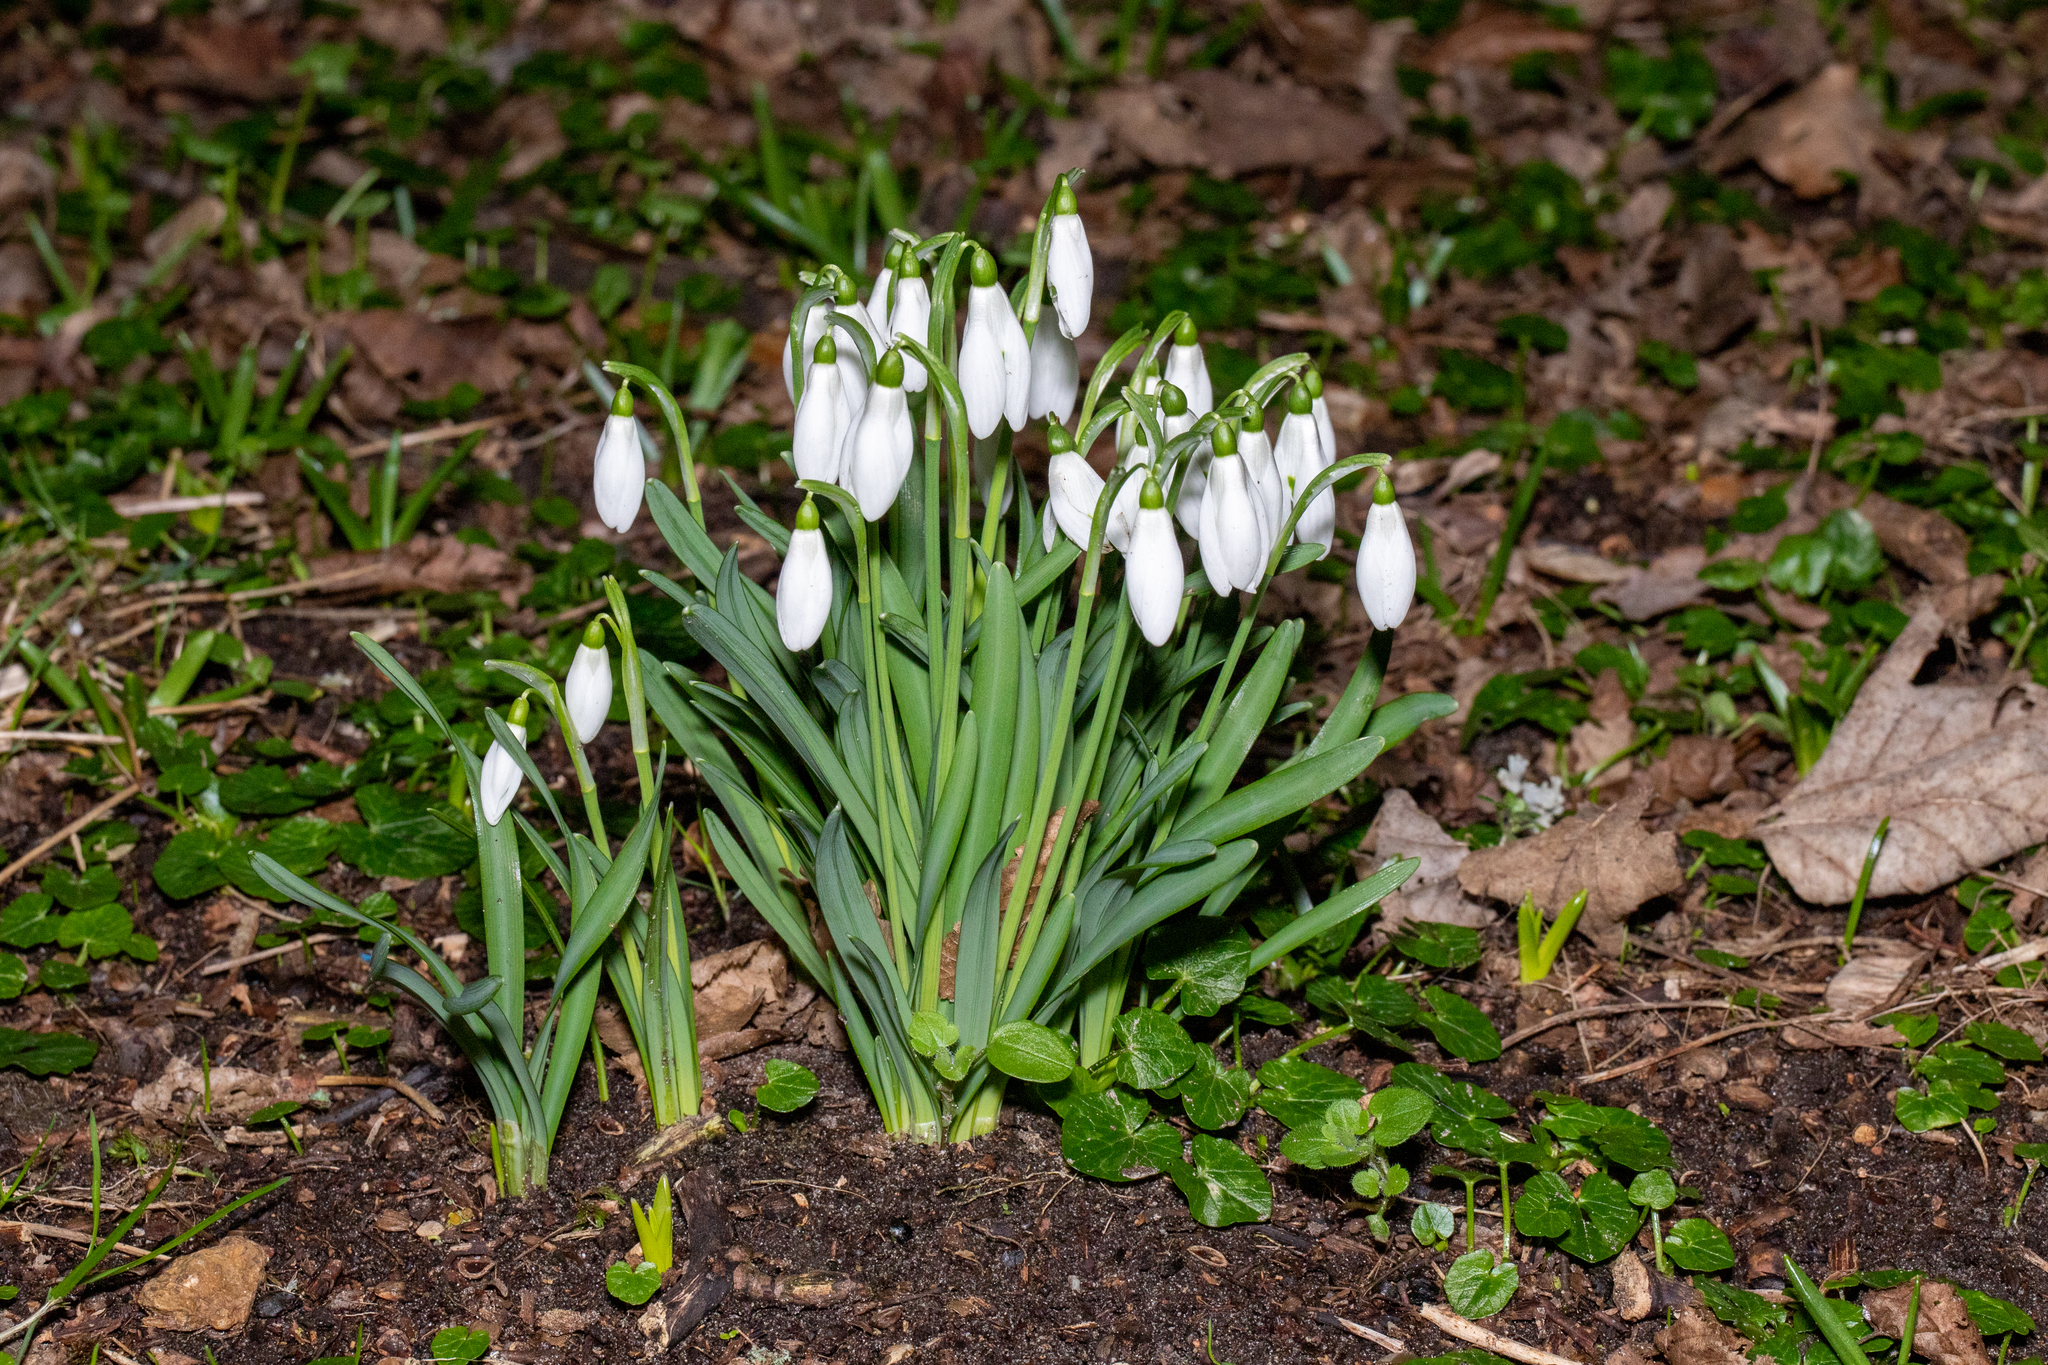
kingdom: Plantae
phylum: Tracheophyta
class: Liliopsida
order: Asparagales
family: Amaryllidaceae
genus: Galanthus
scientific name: Galanthus nivalis
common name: Snowdrop
